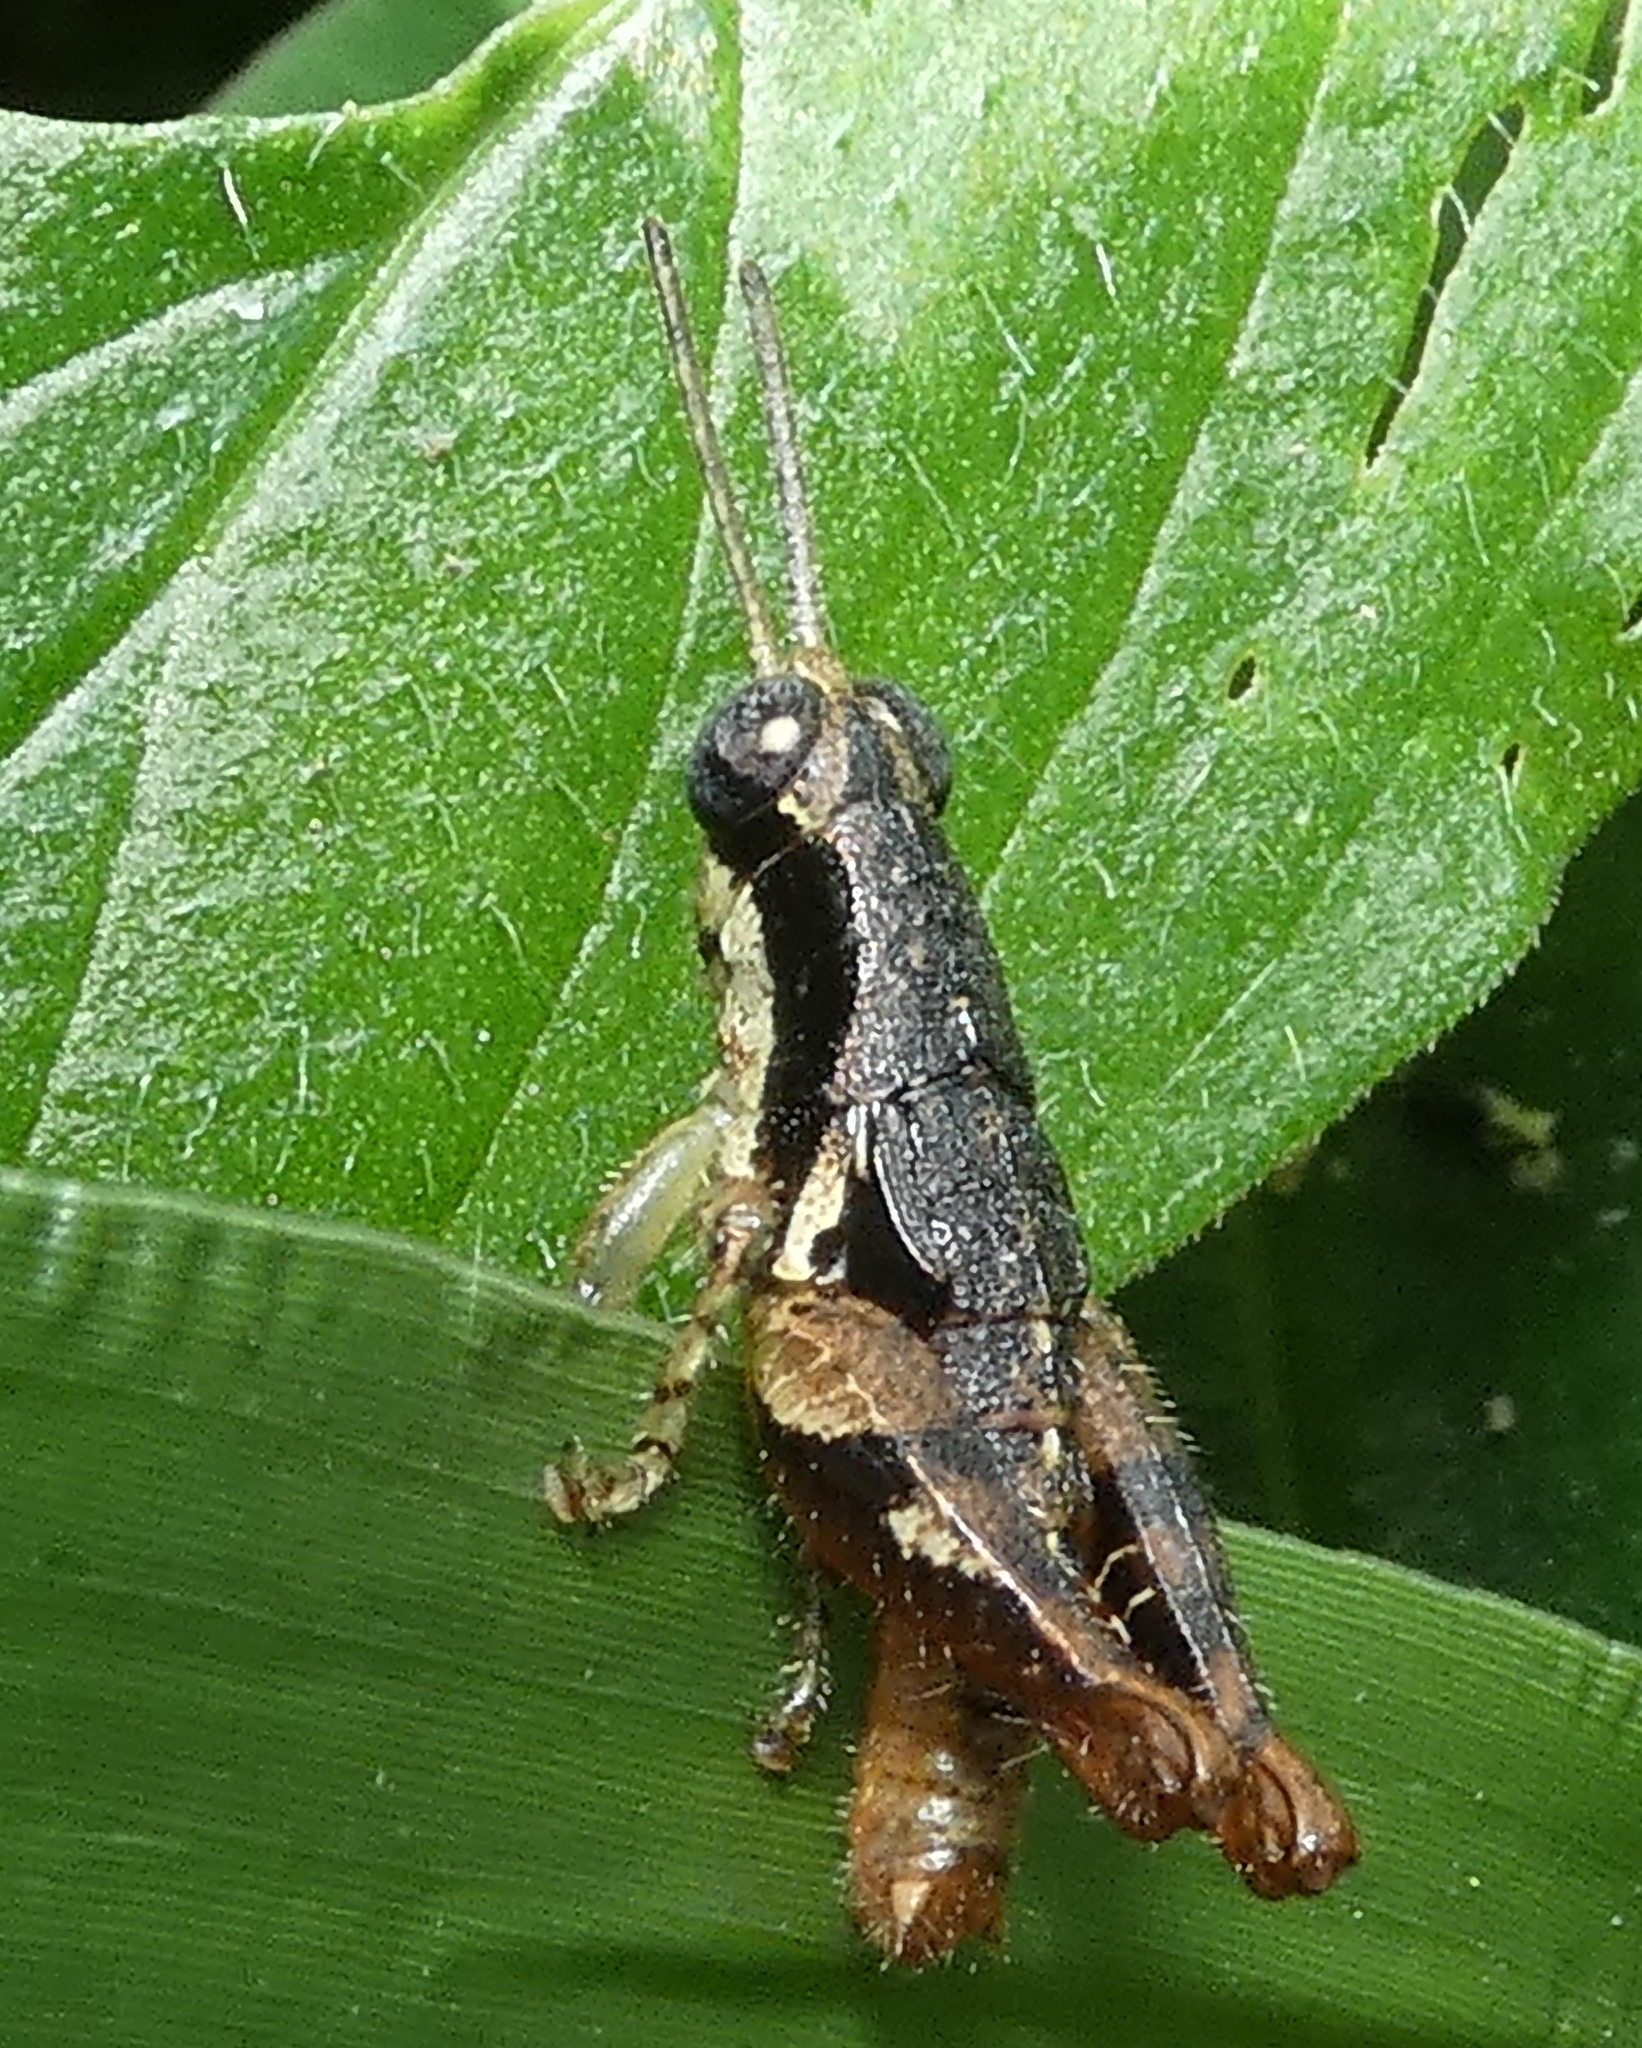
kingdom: Animalia
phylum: Arthropoda
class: Insecta
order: Orthoptera
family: Acrididae
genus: Eujivarus
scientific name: Eujivarus meridionalis
